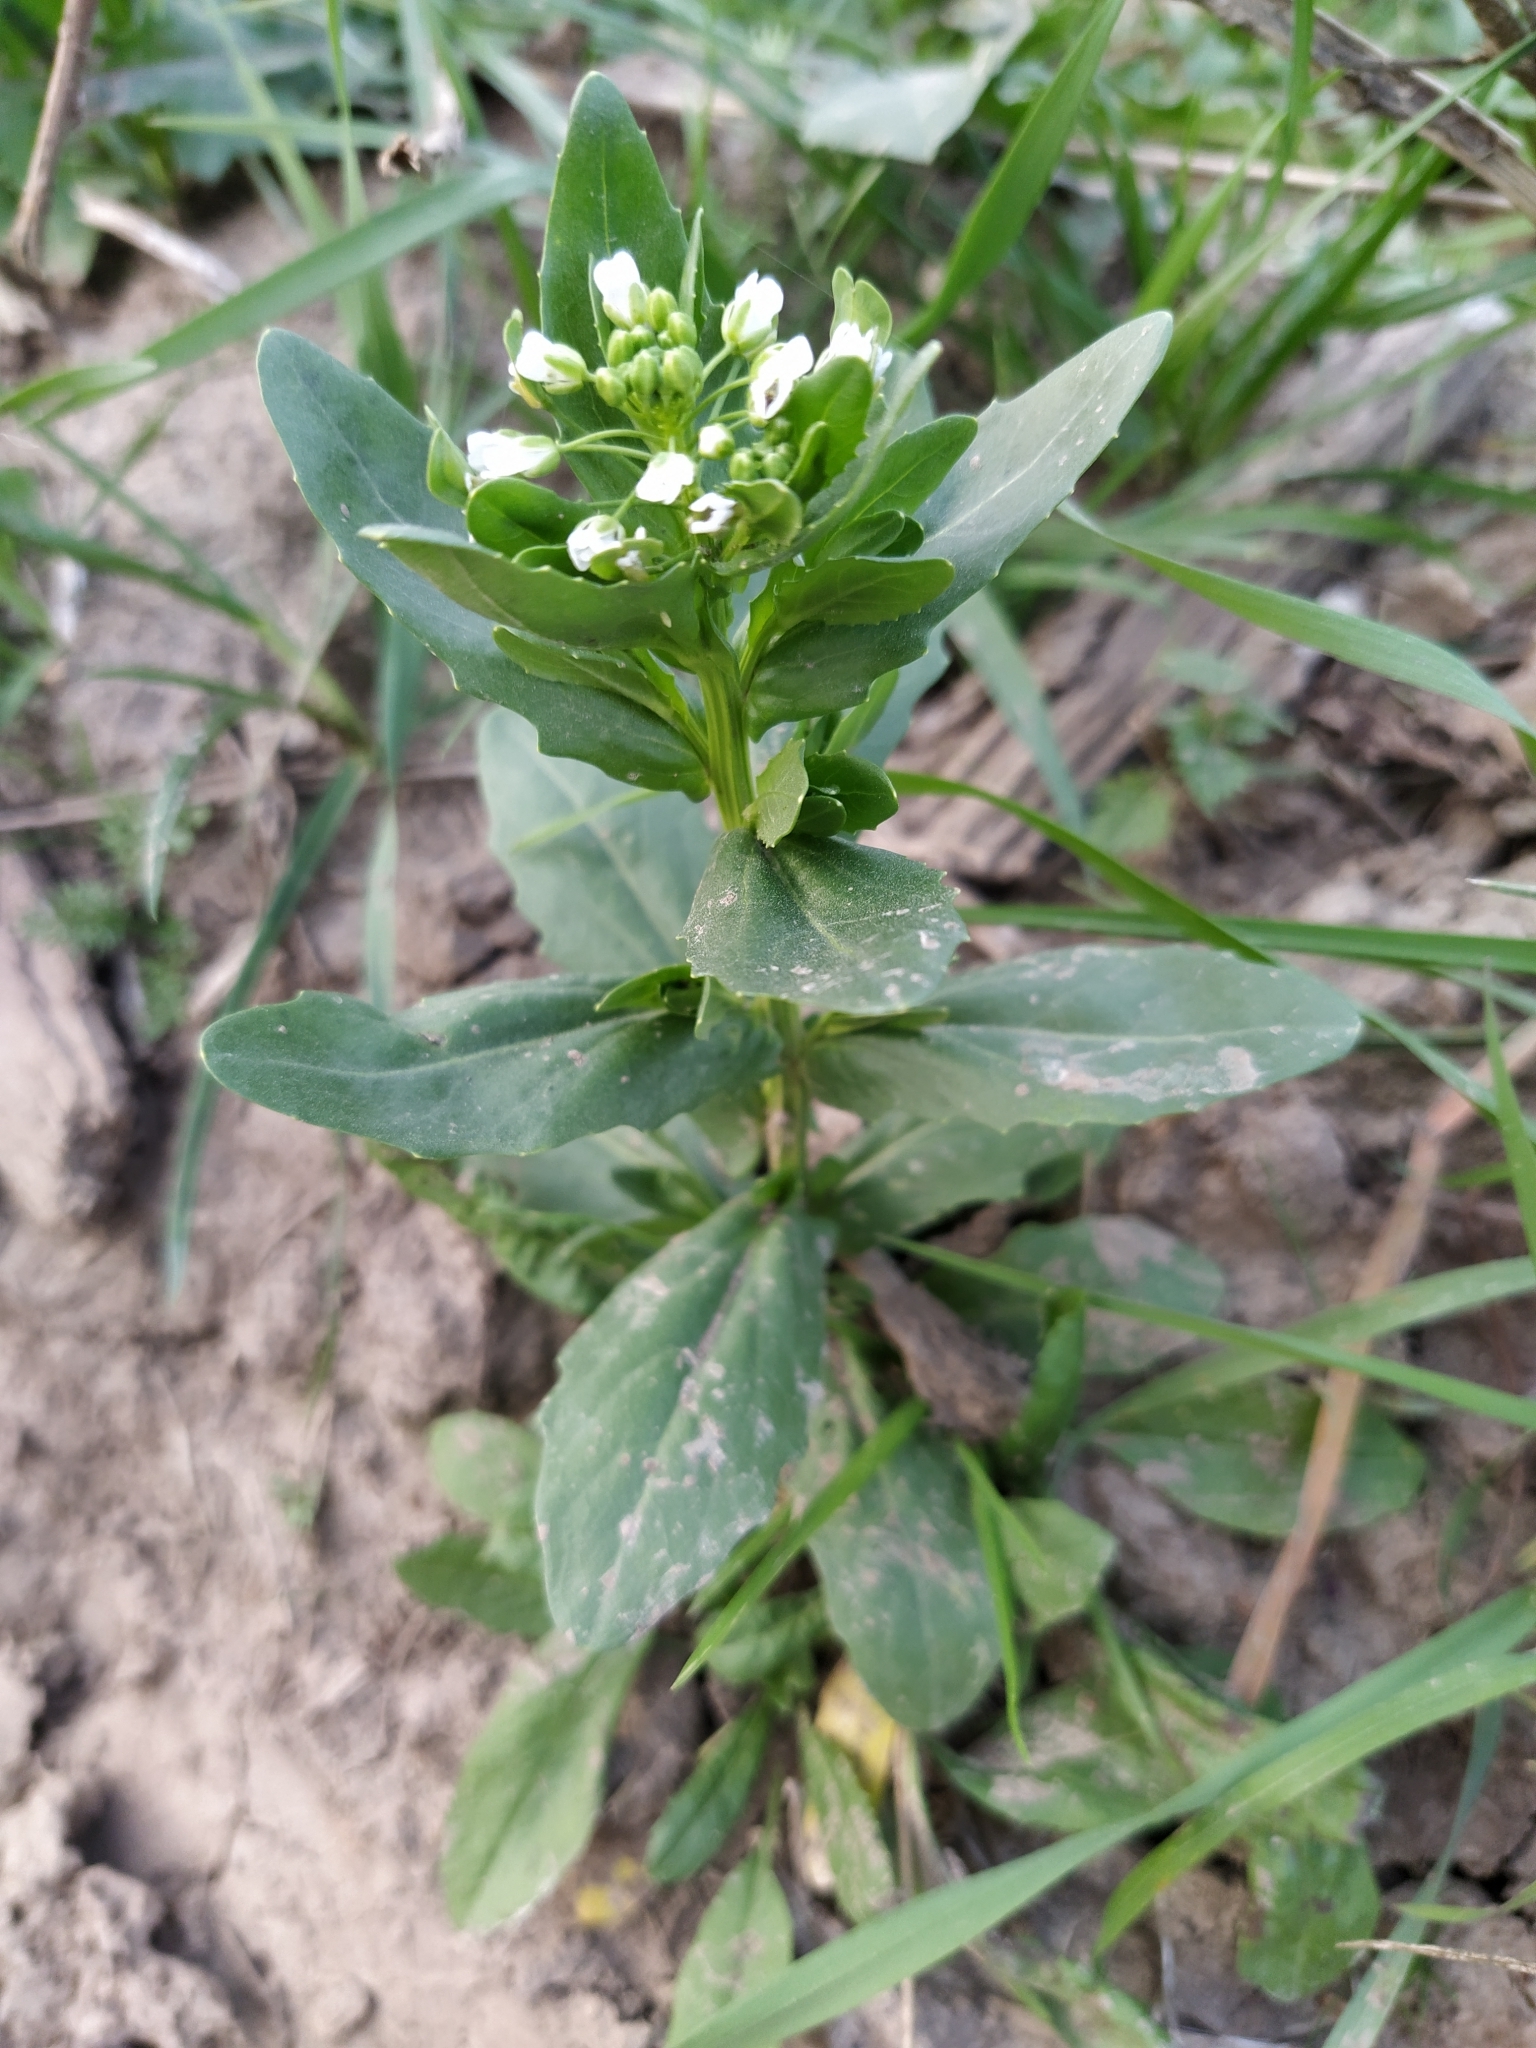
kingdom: Plantae
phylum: Tracheophyta
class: Magnoliopsida
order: Brassicales
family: Brassicaceae
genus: Thlaspi
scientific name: Thlaspi arvense
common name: Field pennycress
